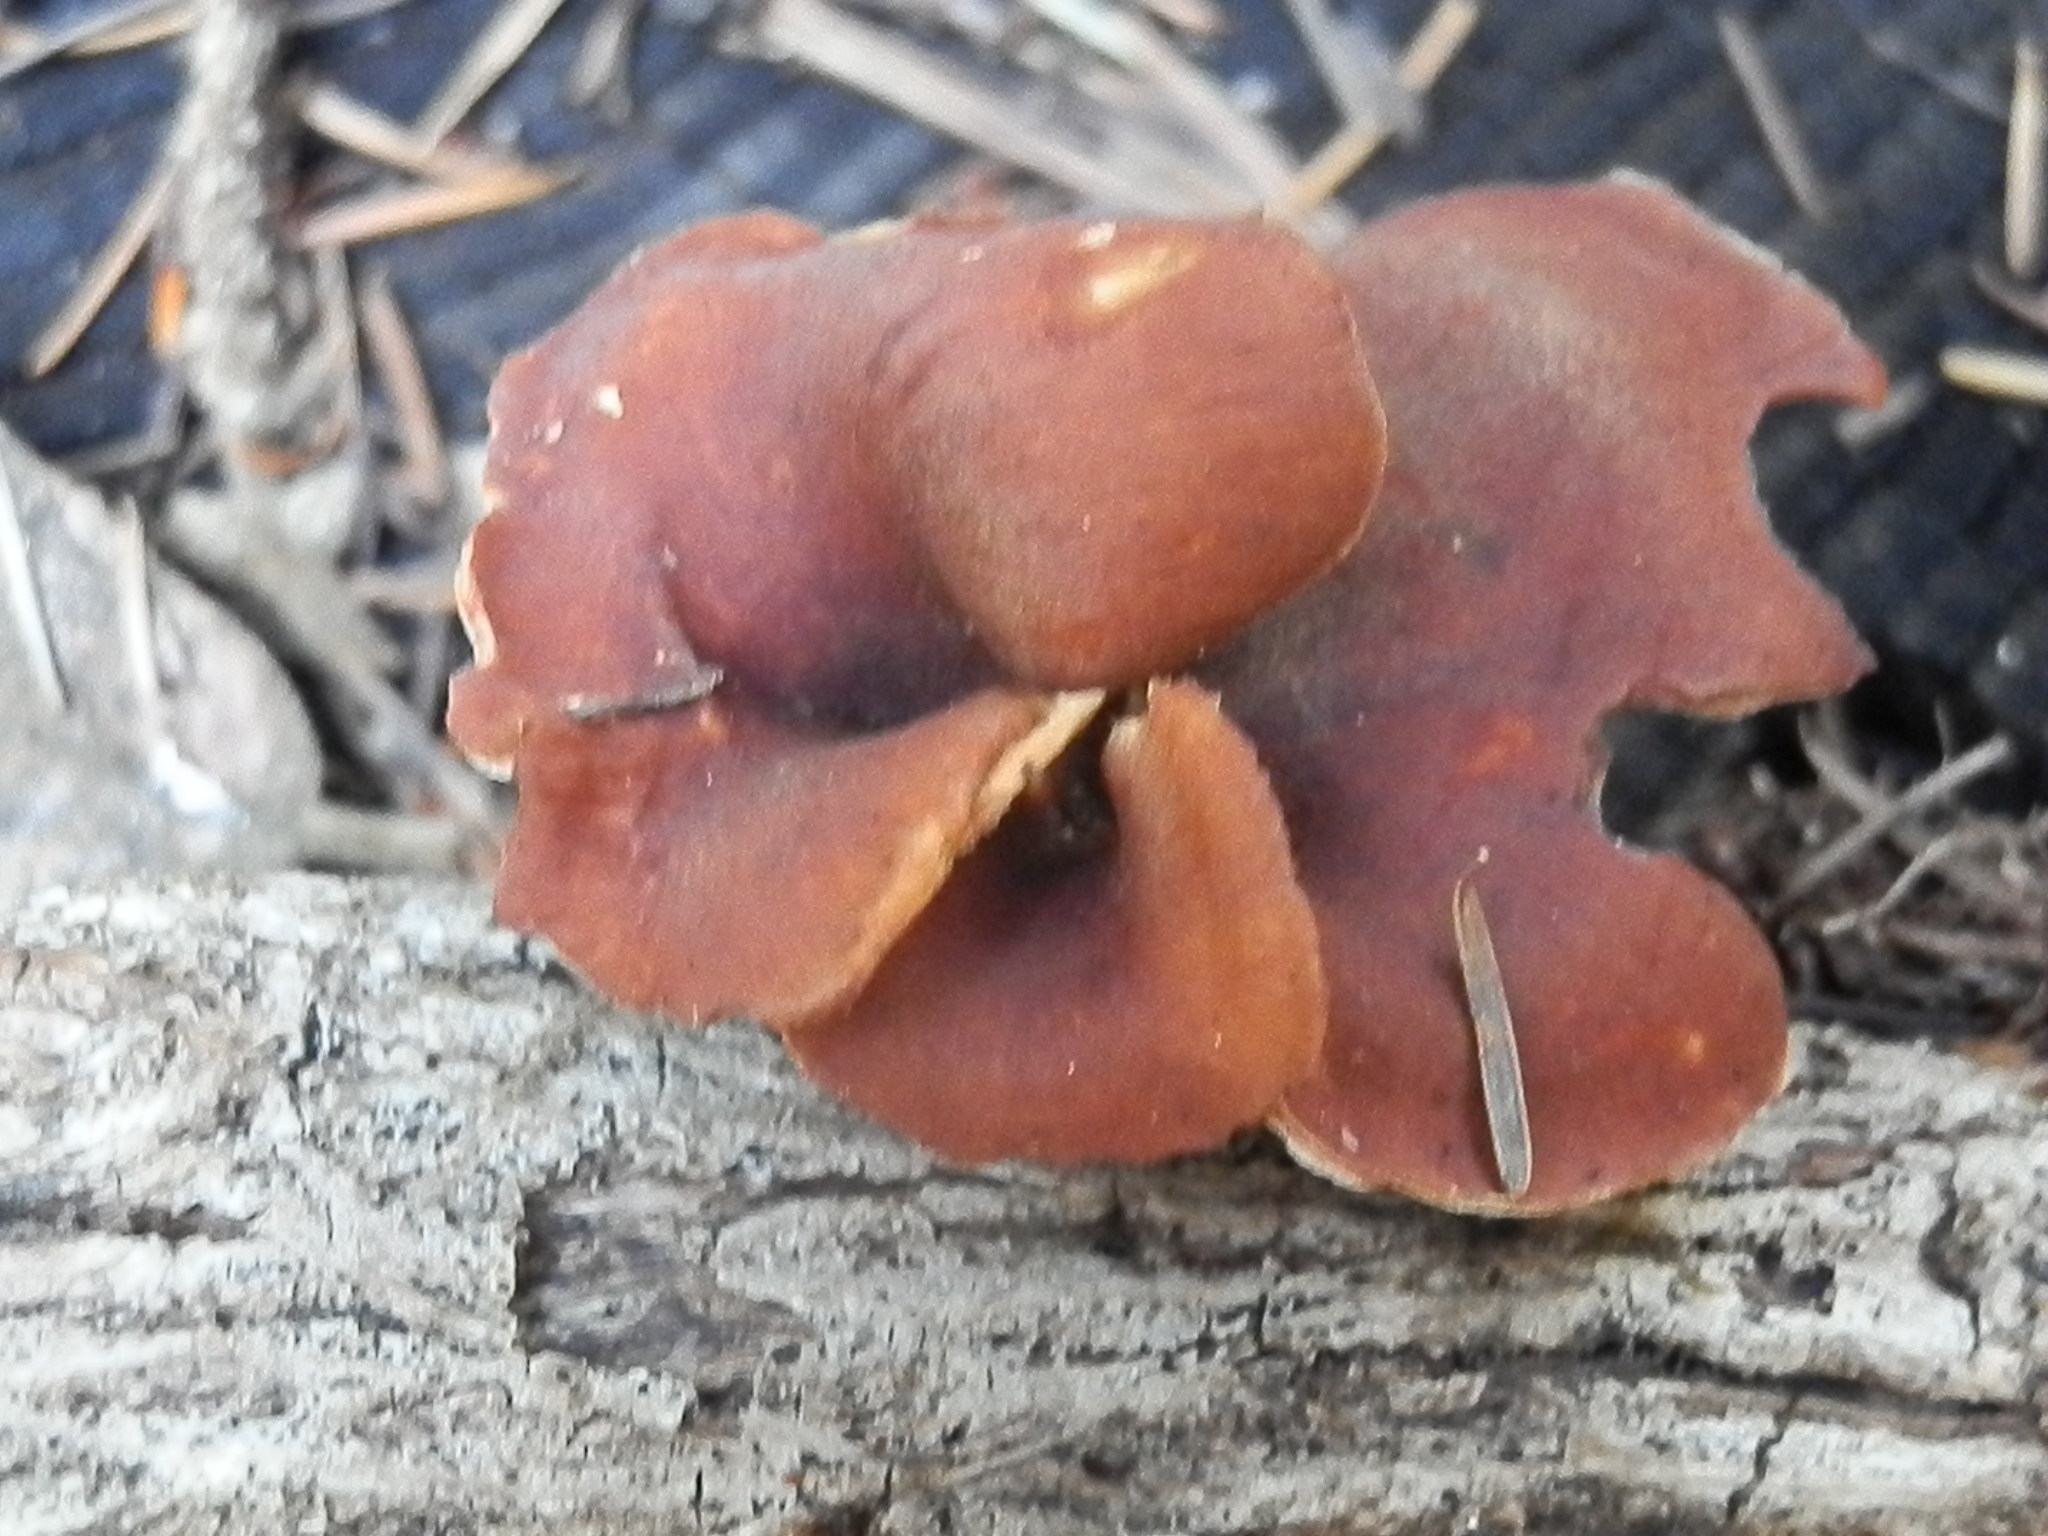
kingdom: Fungi
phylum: Basidiomycota
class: Agaricomycetes
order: Polyporales
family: Polyporaceae
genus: Picipes
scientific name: Picipes badius
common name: Bay polypore
